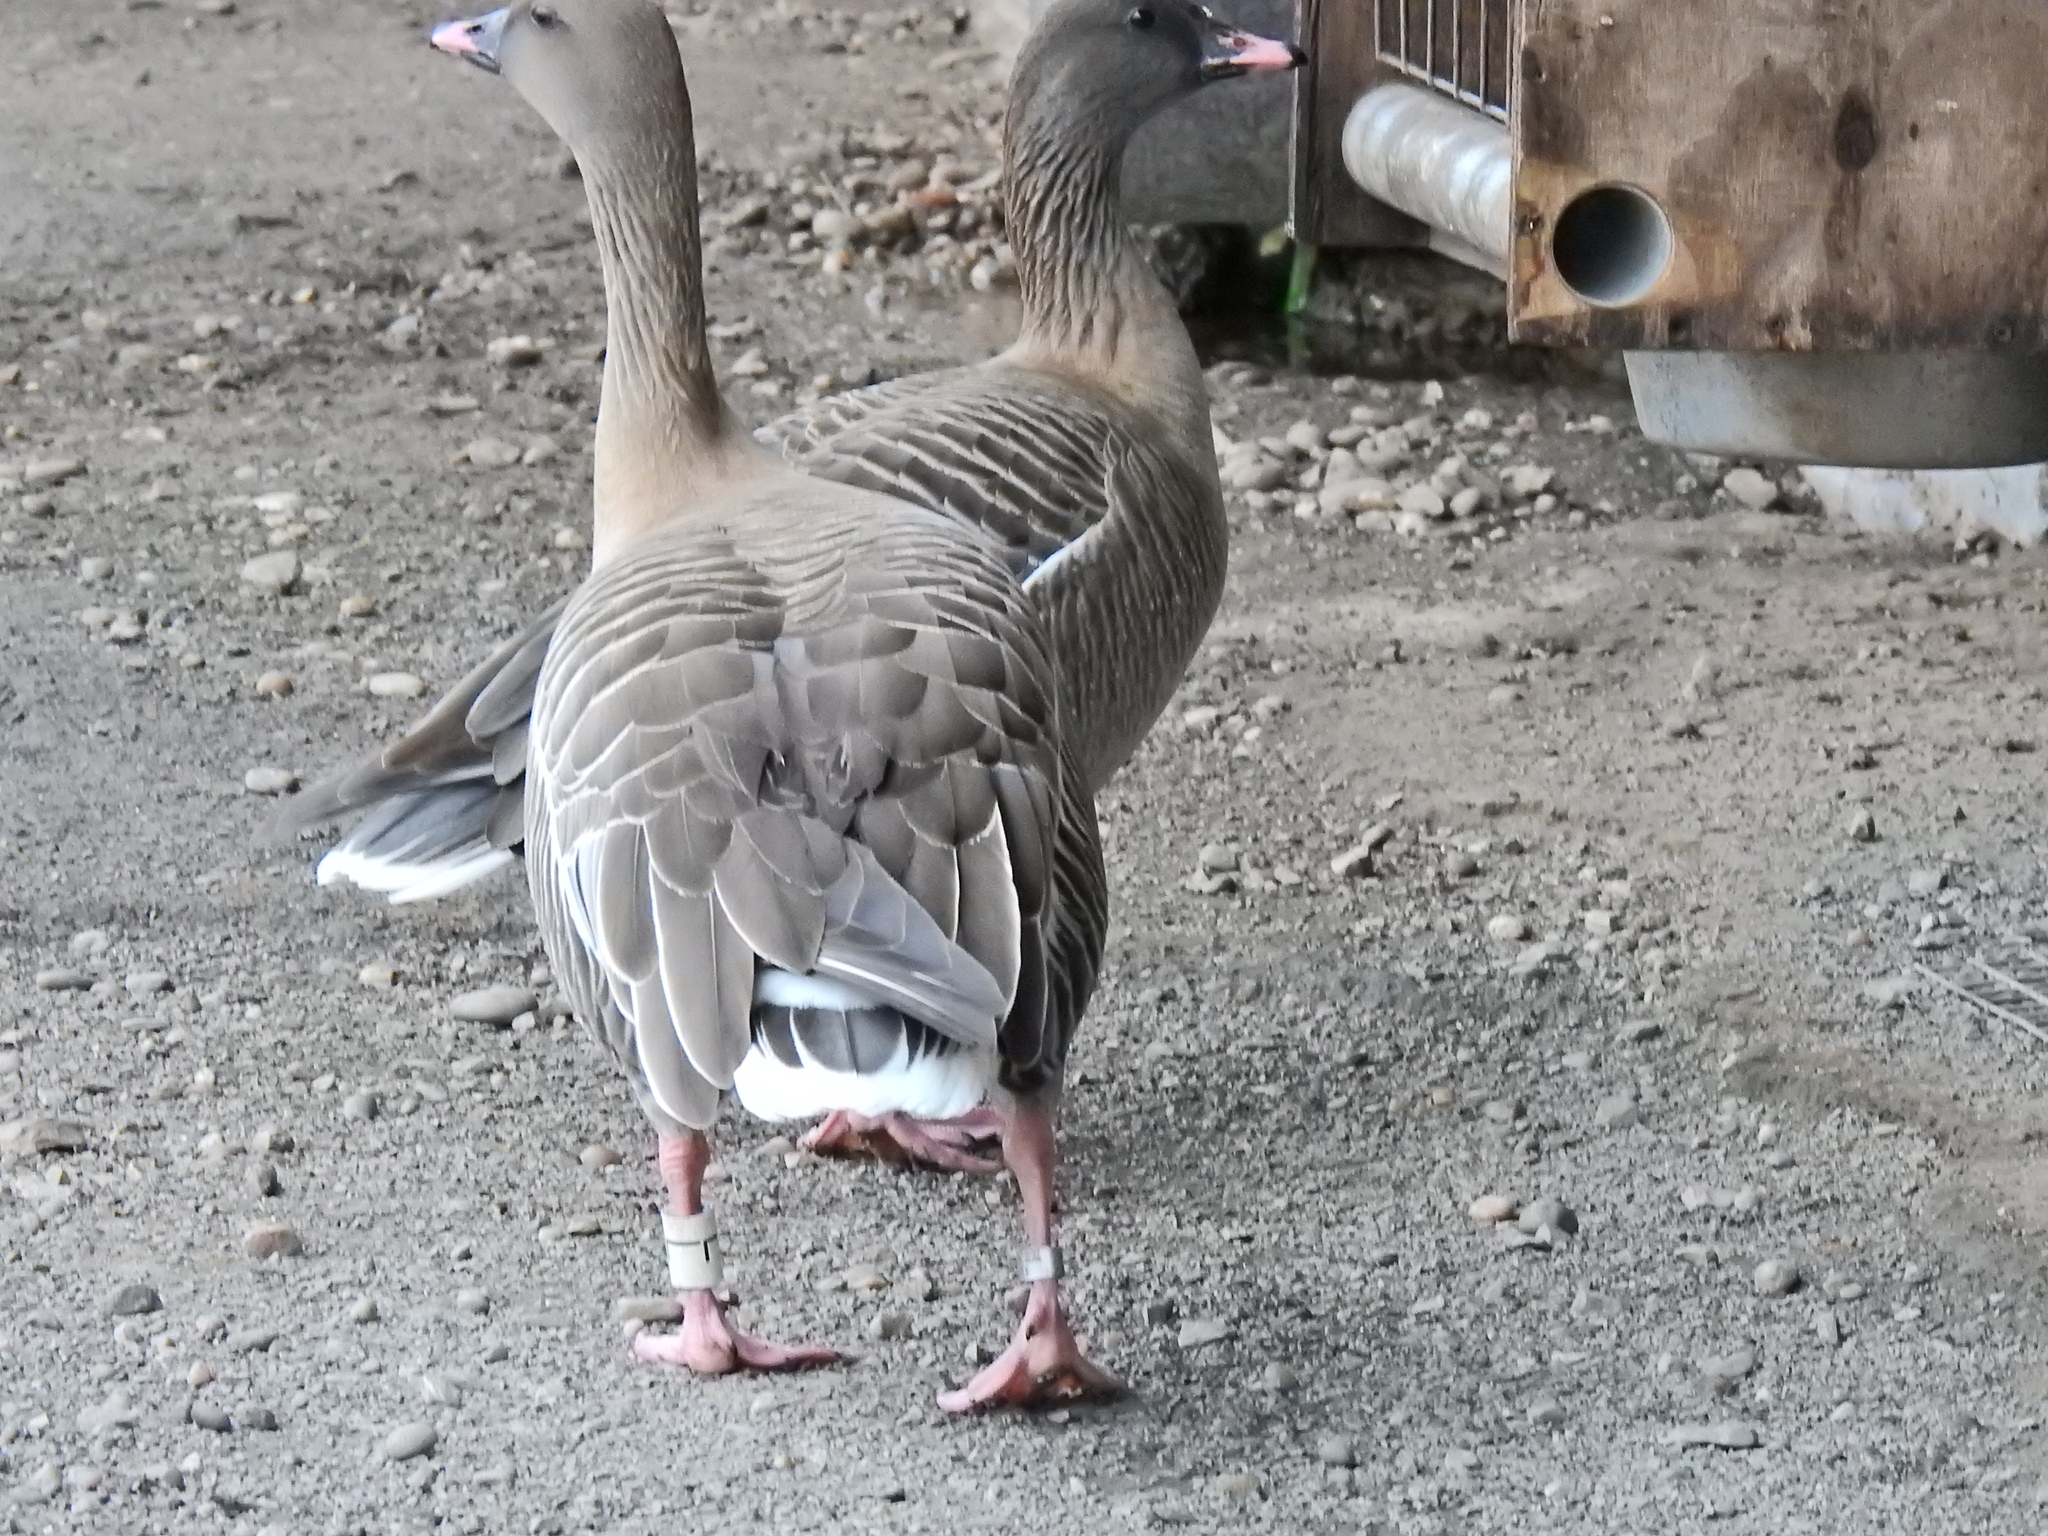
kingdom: Animalia
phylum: Chordata
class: Aves
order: Anseriformes
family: Anatidae
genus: Anser
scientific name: Anser brachyrhynchus
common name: Pink-footed goose
